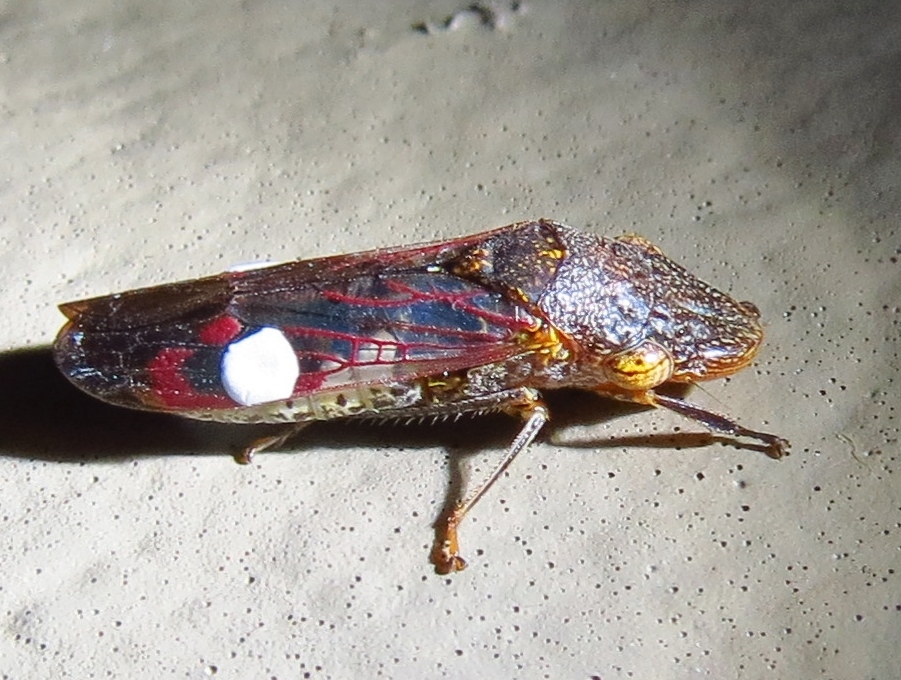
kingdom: Animalia
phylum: Arthropoda
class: Insecta
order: Hemiptera
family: Cicadellidae
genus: Homalodisca
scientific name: Homalodisca vitripennis
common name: Glassy-winged sharpshooter
